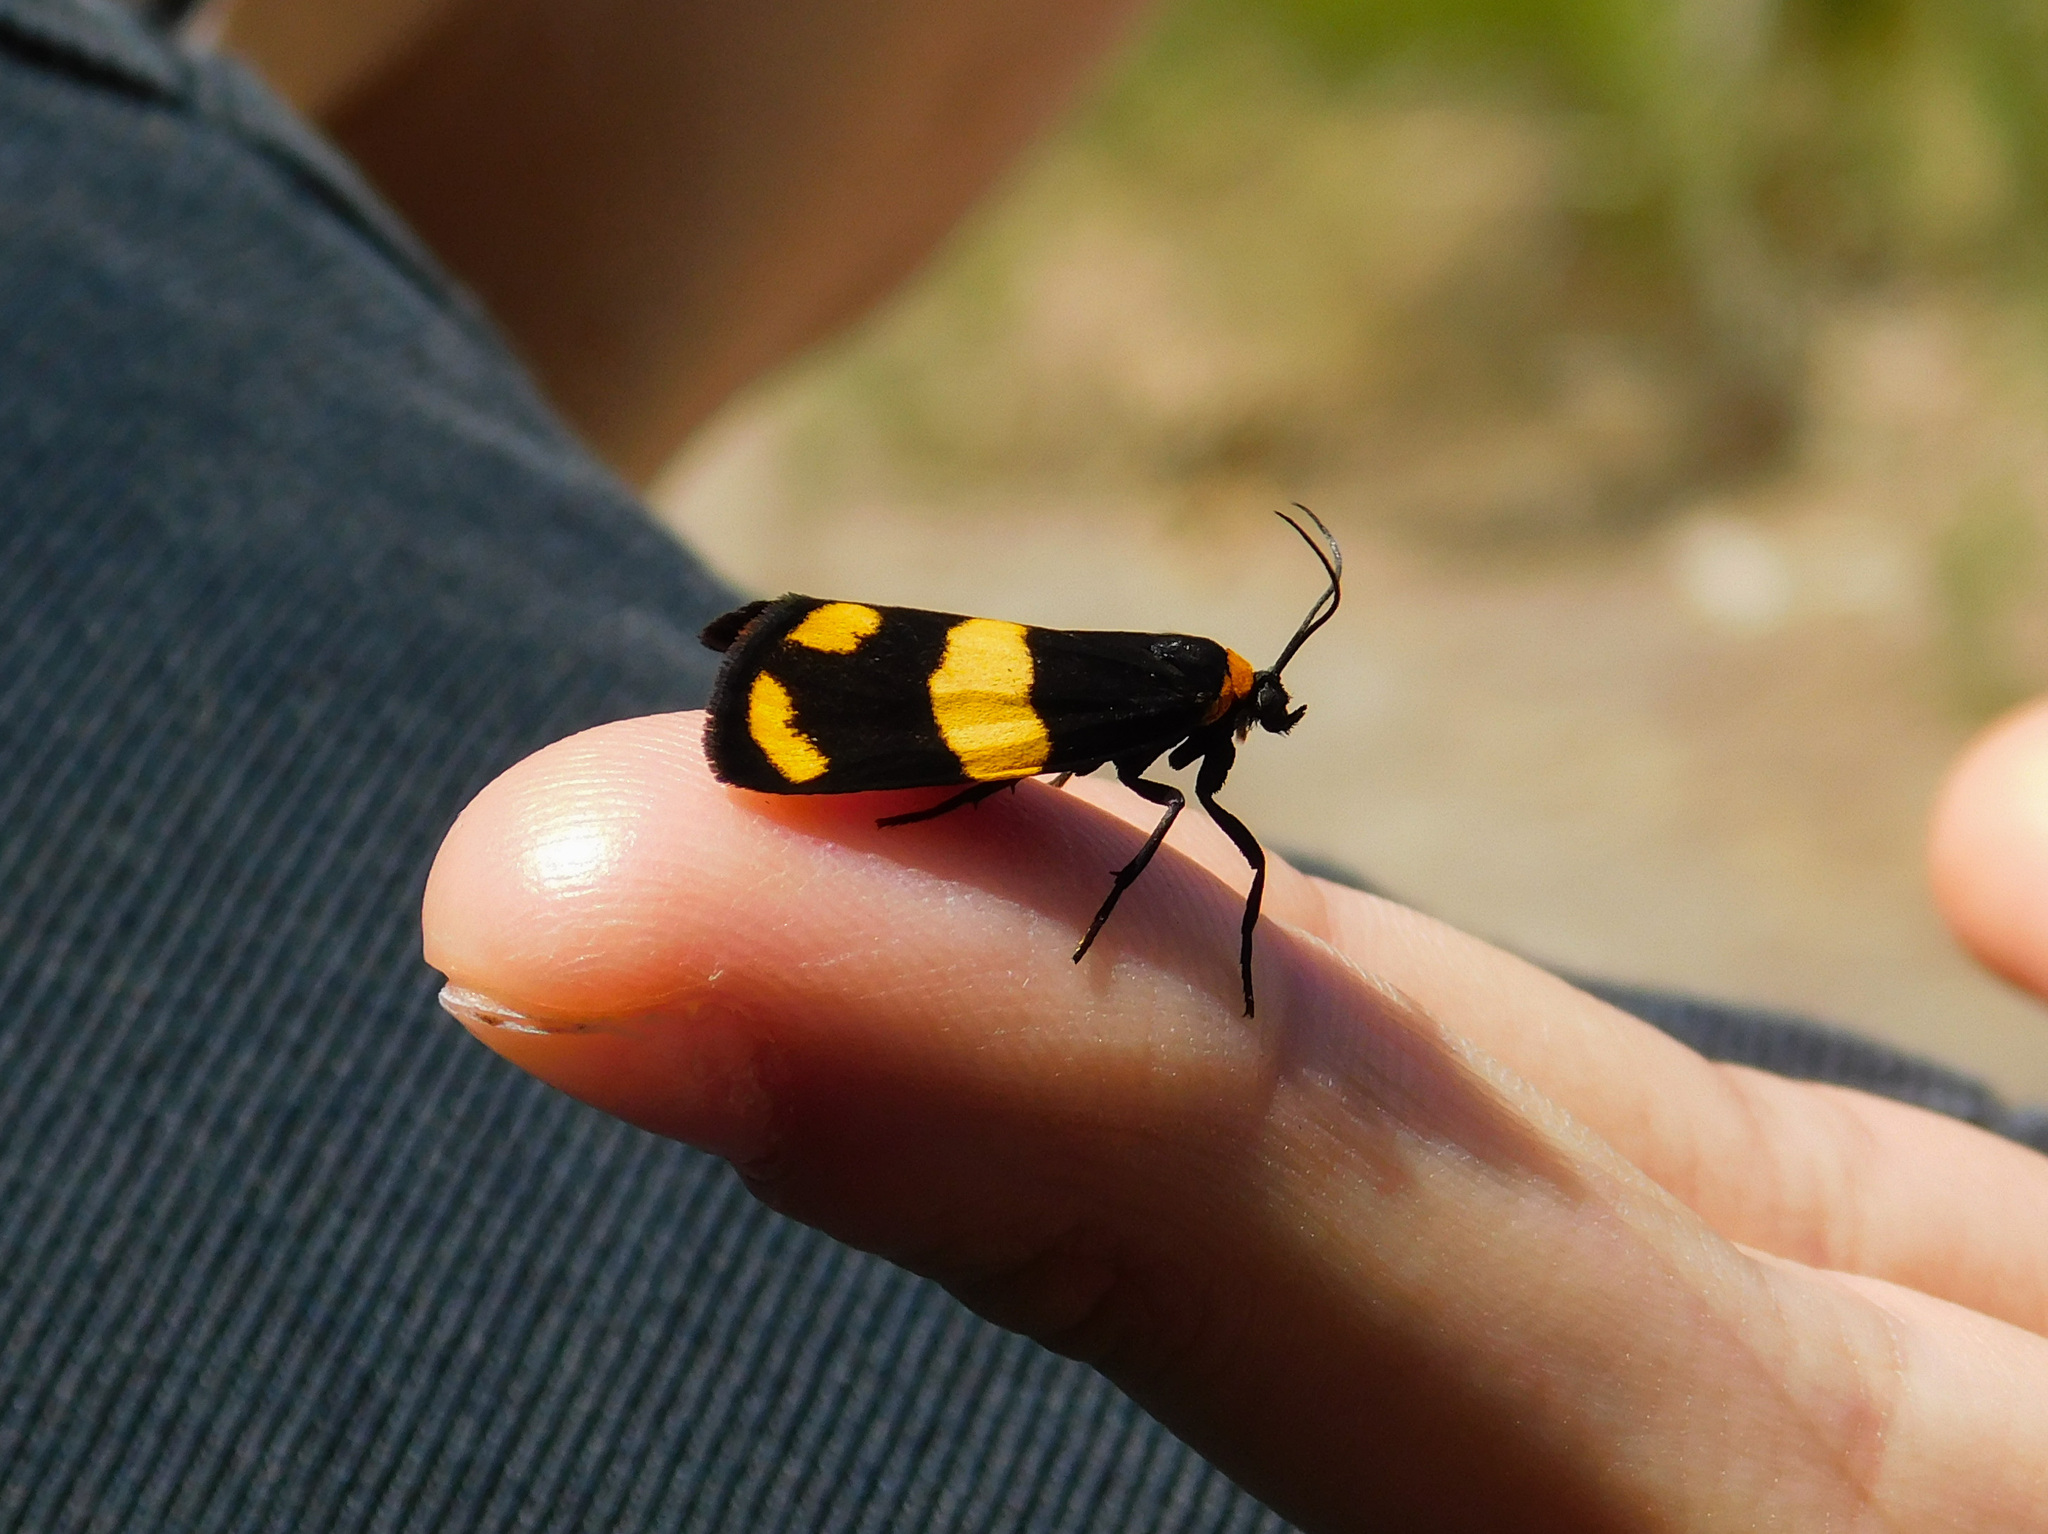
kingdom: Animalia
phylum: Arthropoda
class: Insecta
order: Lepidoptera
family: Erebidae
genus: Eudesmia
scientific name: Eudesmia
